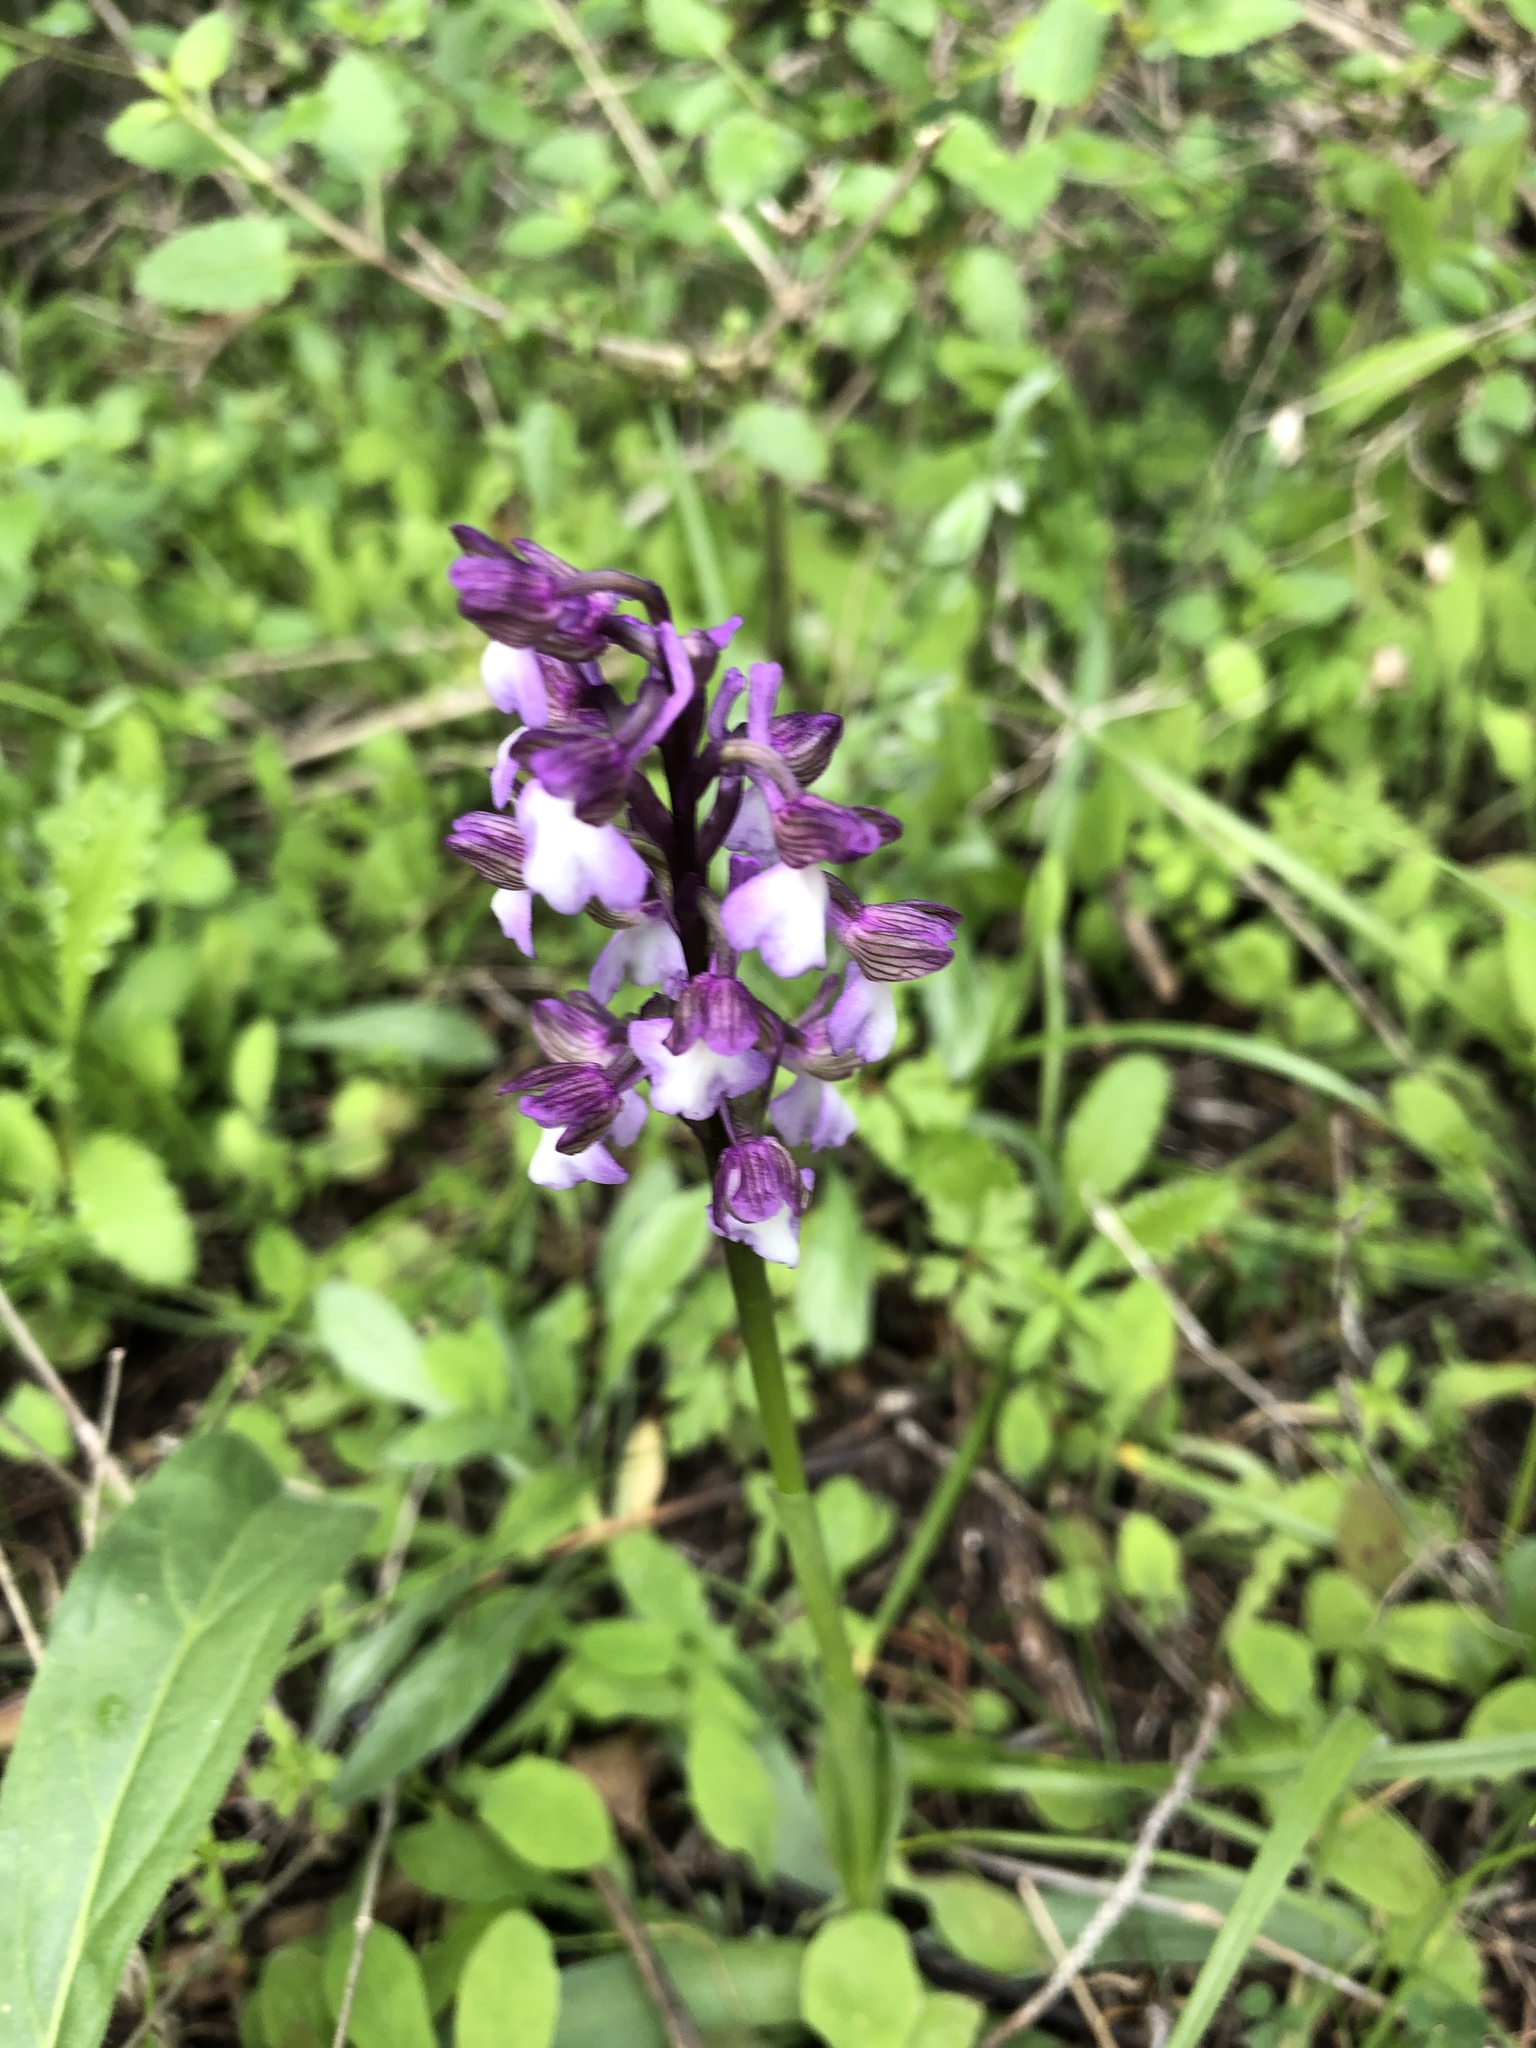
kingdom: Plantae
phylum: Tracheophyta
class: Liliopsida
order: Asparagales
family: Orchidaceae
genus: Anacamptis
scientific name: Anacamptis morio
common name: Green-winged orchid
